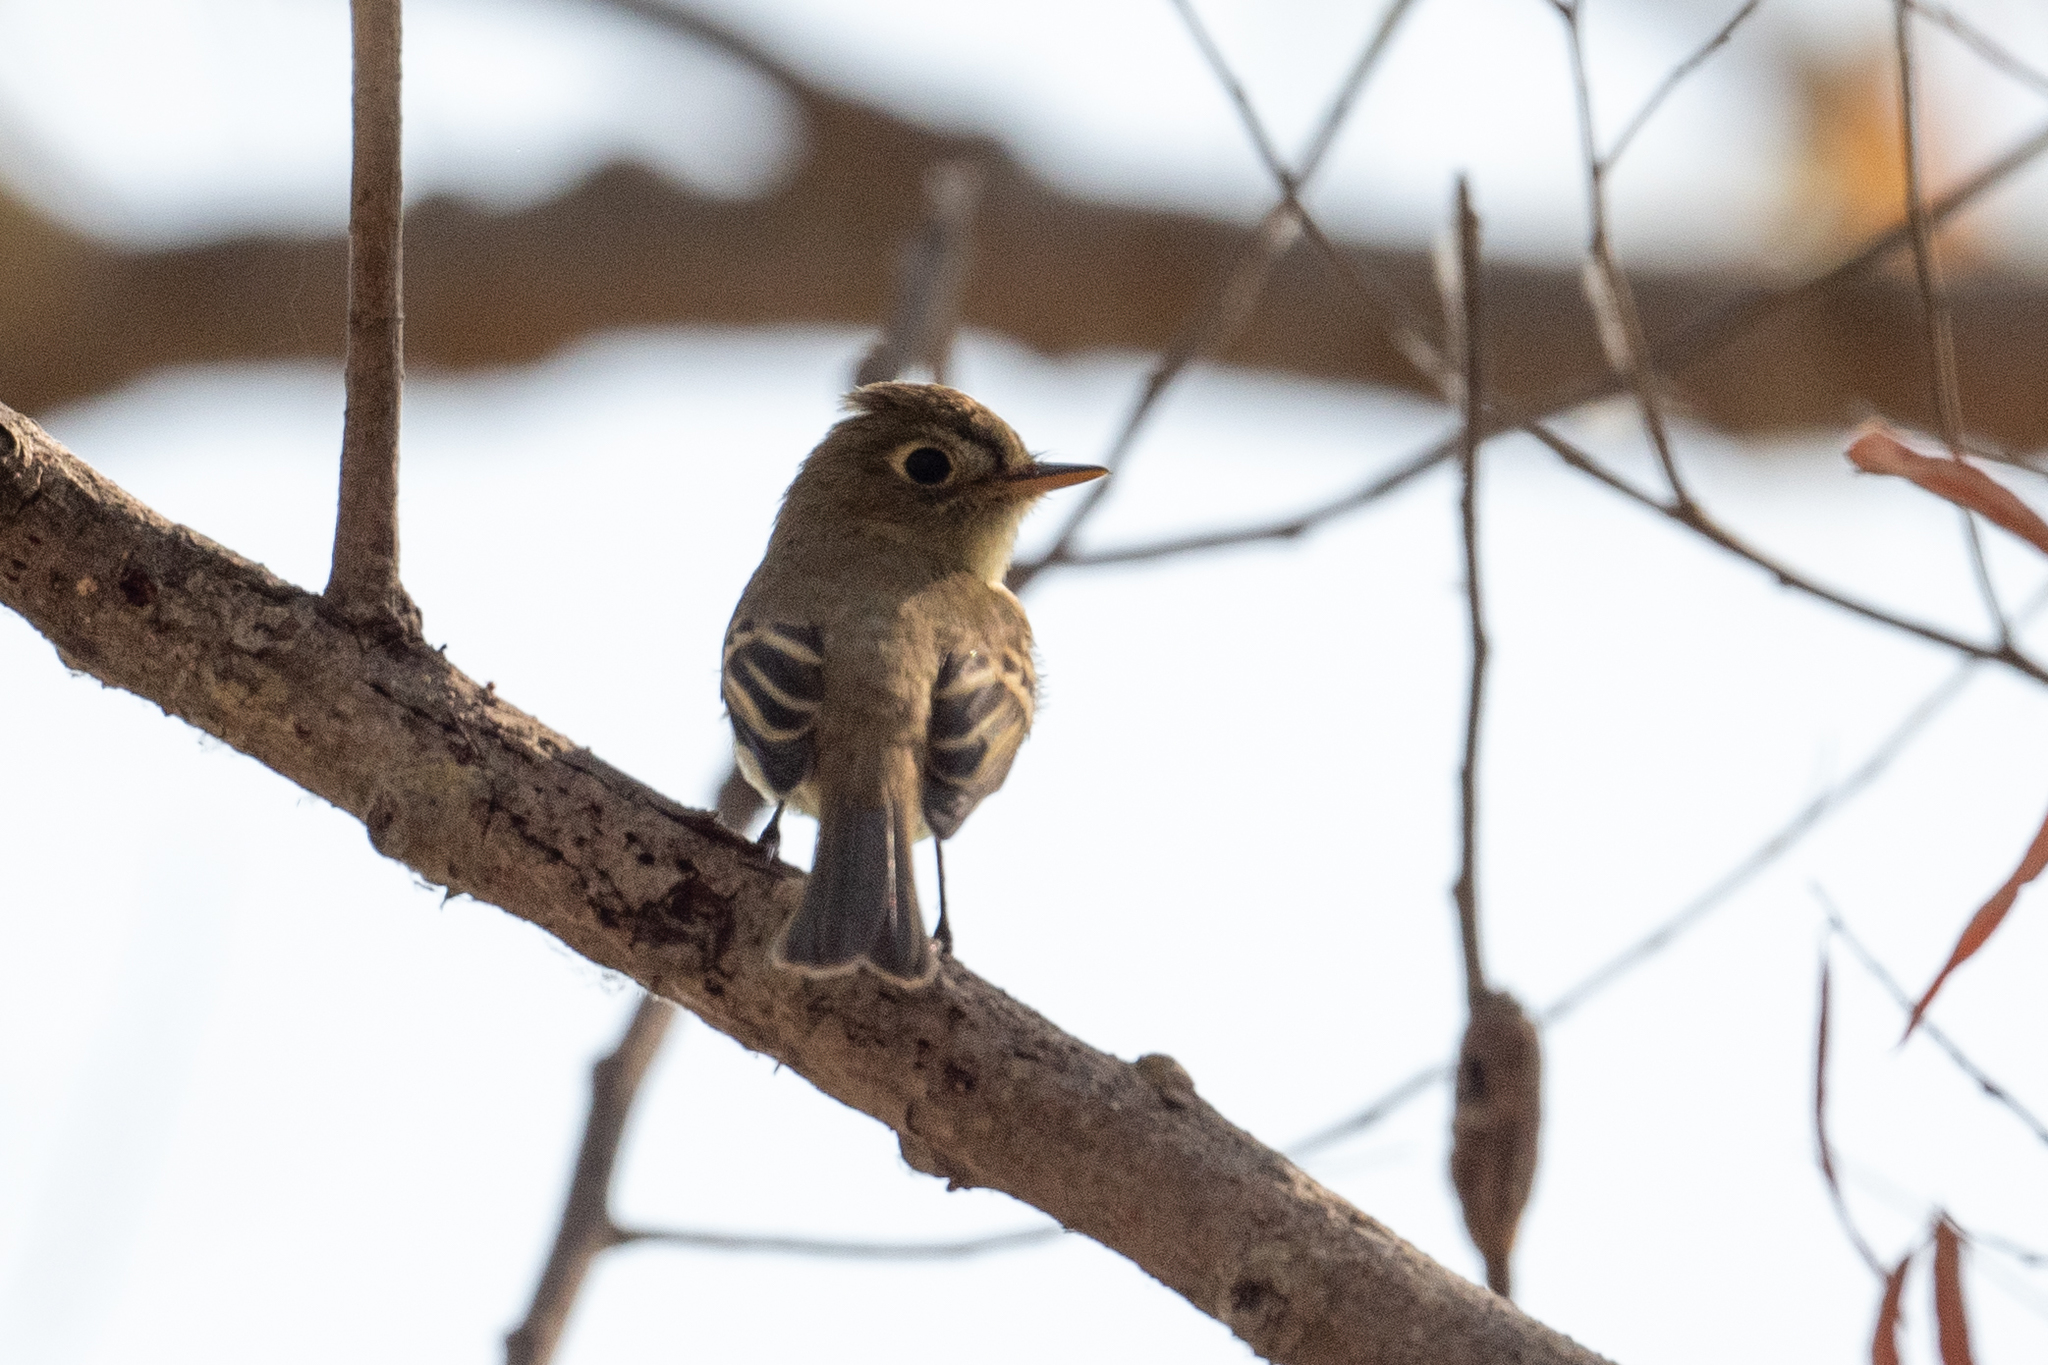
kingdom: Animalia
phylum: Chordata
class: Aves
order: Passeriformes
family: Tyrannidae
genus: Empidonax
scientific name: Empidonax difficilis
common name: Pacific-slope flycatcher
